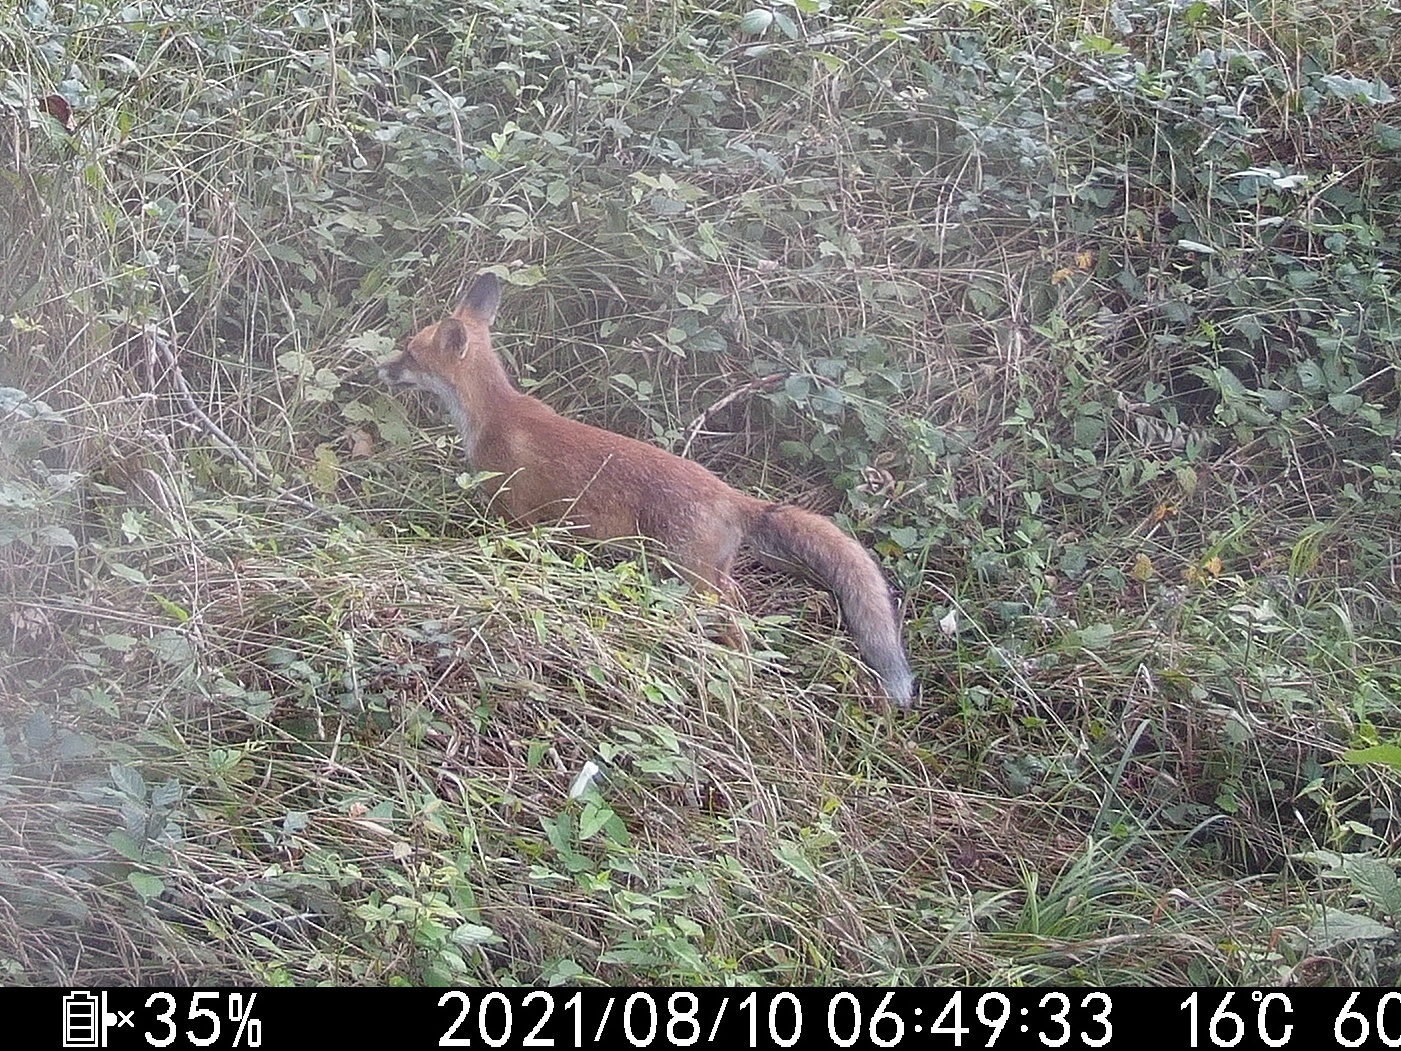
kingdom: Animalia
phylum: Chordata
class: Mammalia
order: Carnivora
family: Canidae
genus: Vulpes
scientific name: Vulpes vulpes
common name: Red fox
